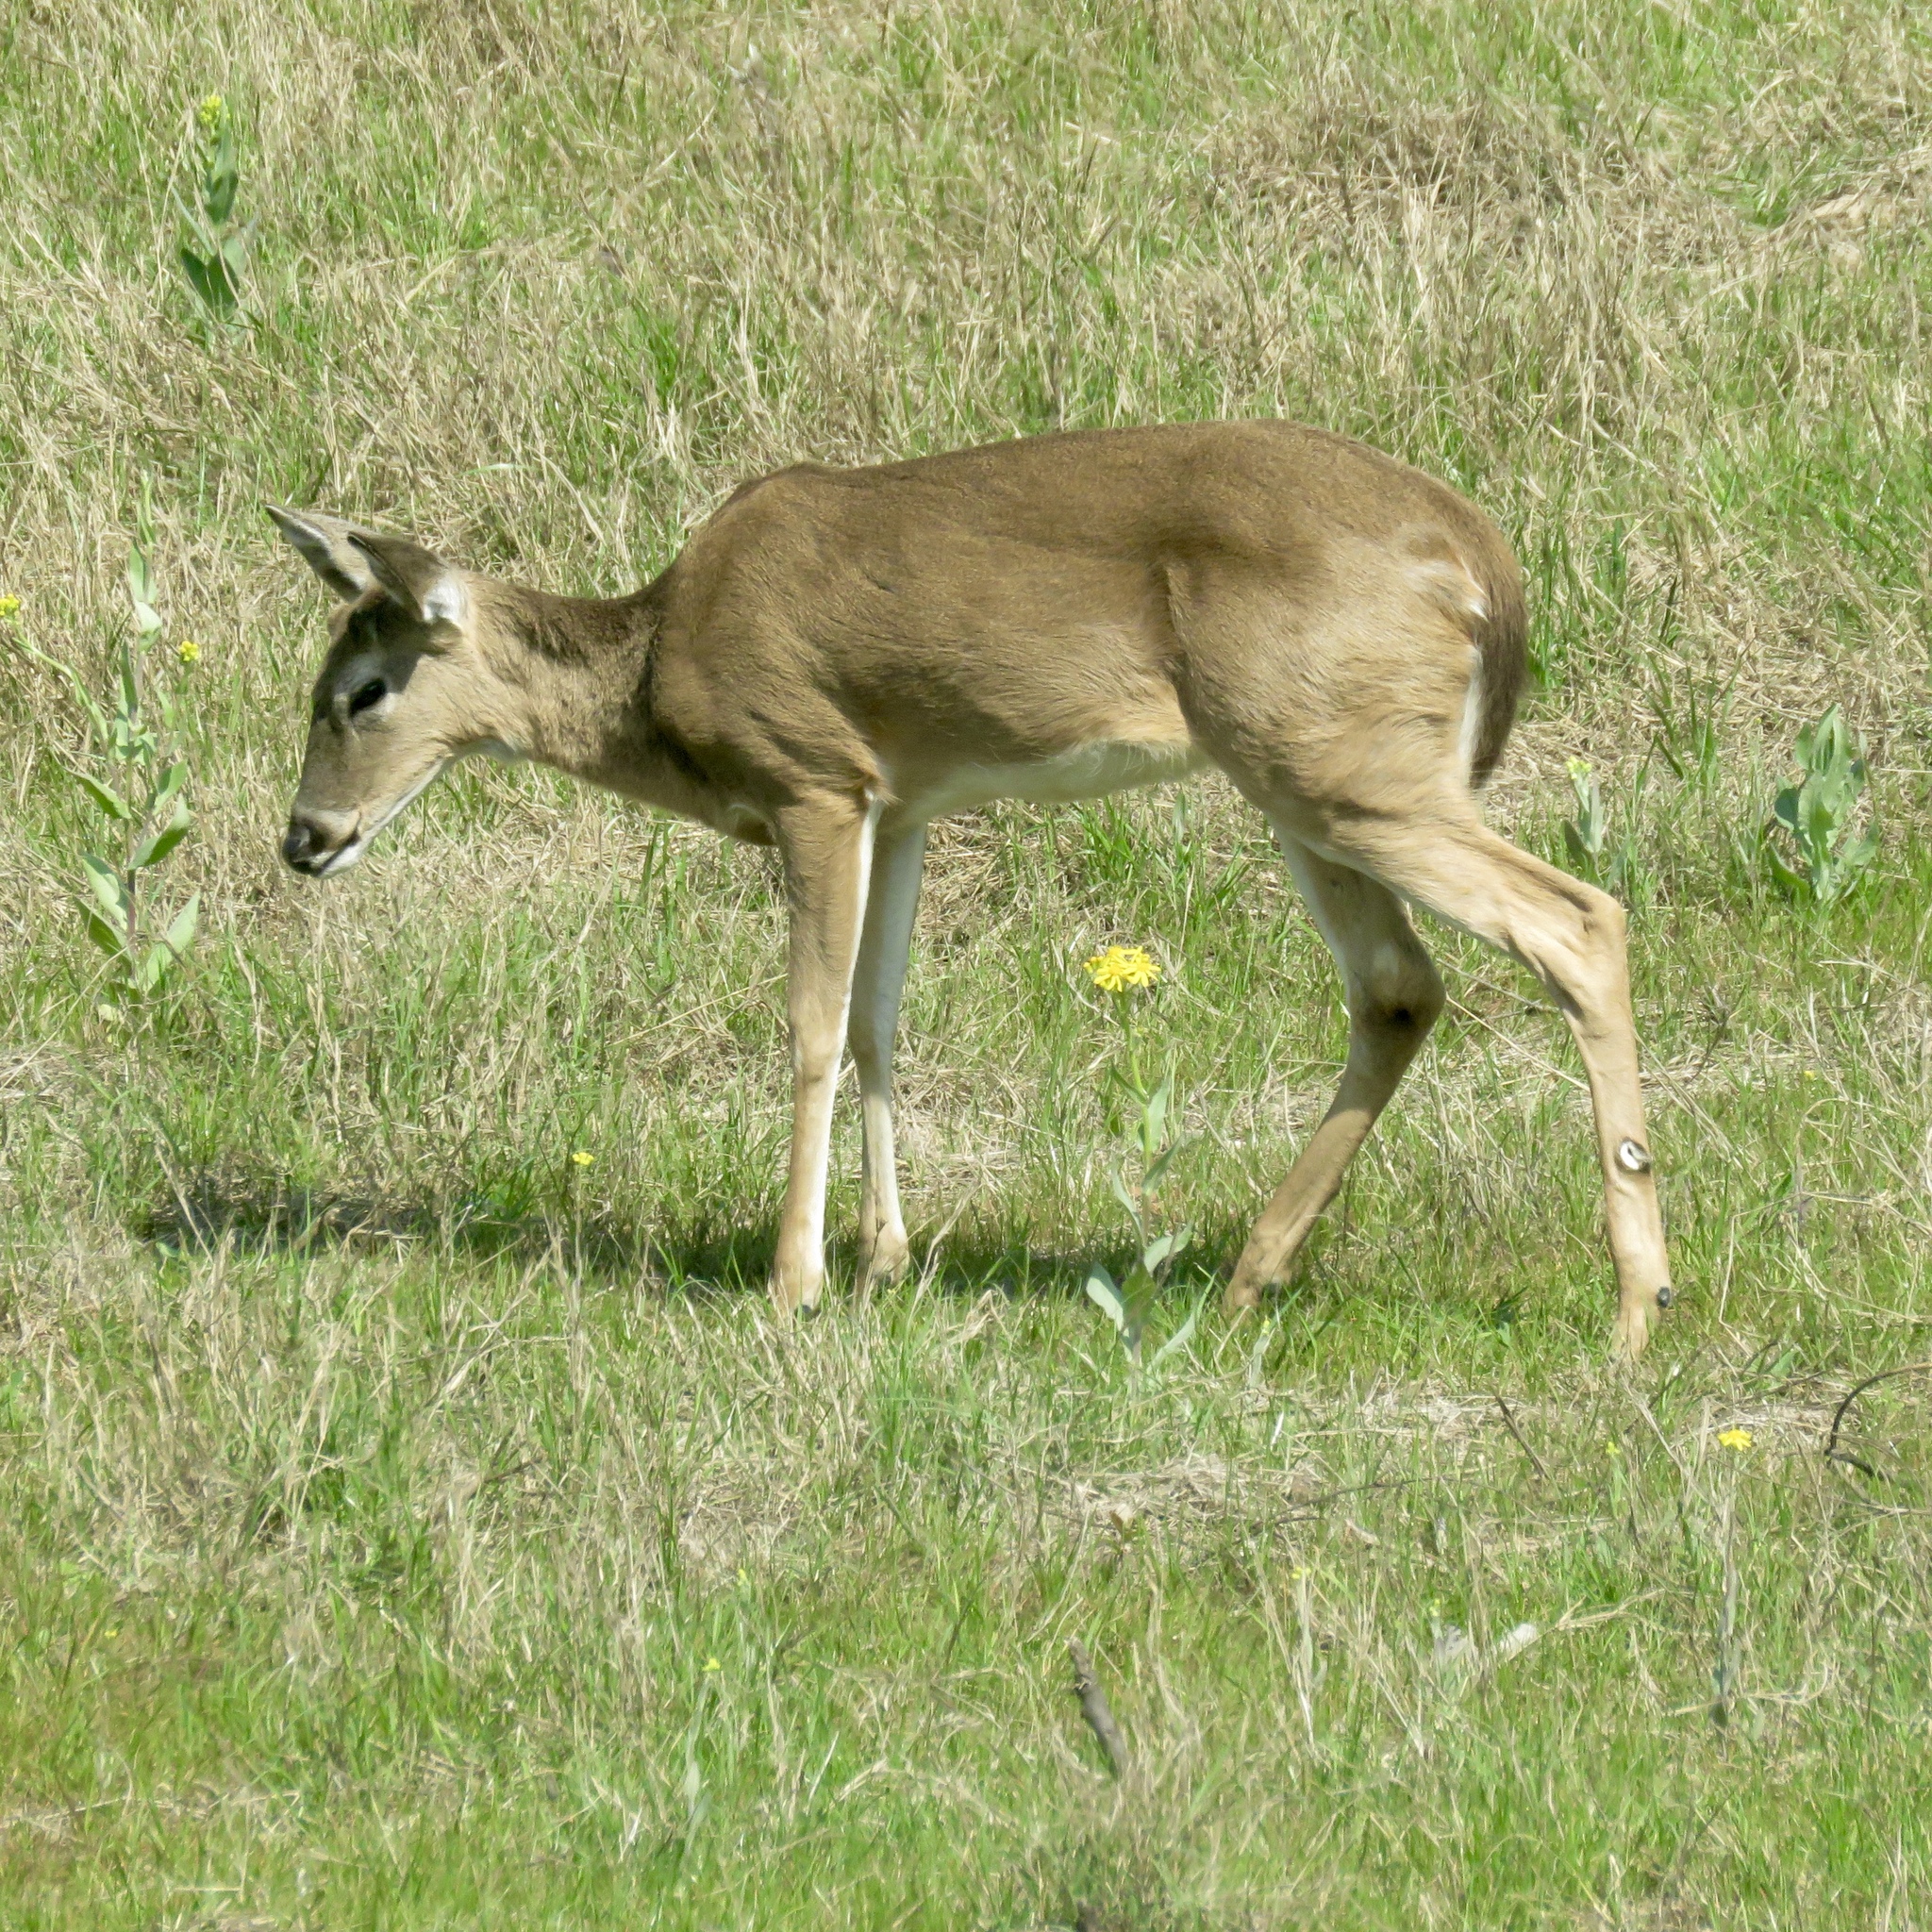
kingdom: Animalia
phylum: Chordata
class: Mammalia
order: Artiodactyla
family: Cervidae
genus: Odocoileus
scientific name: Odocoileus virginianus
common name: White-tailed deer
